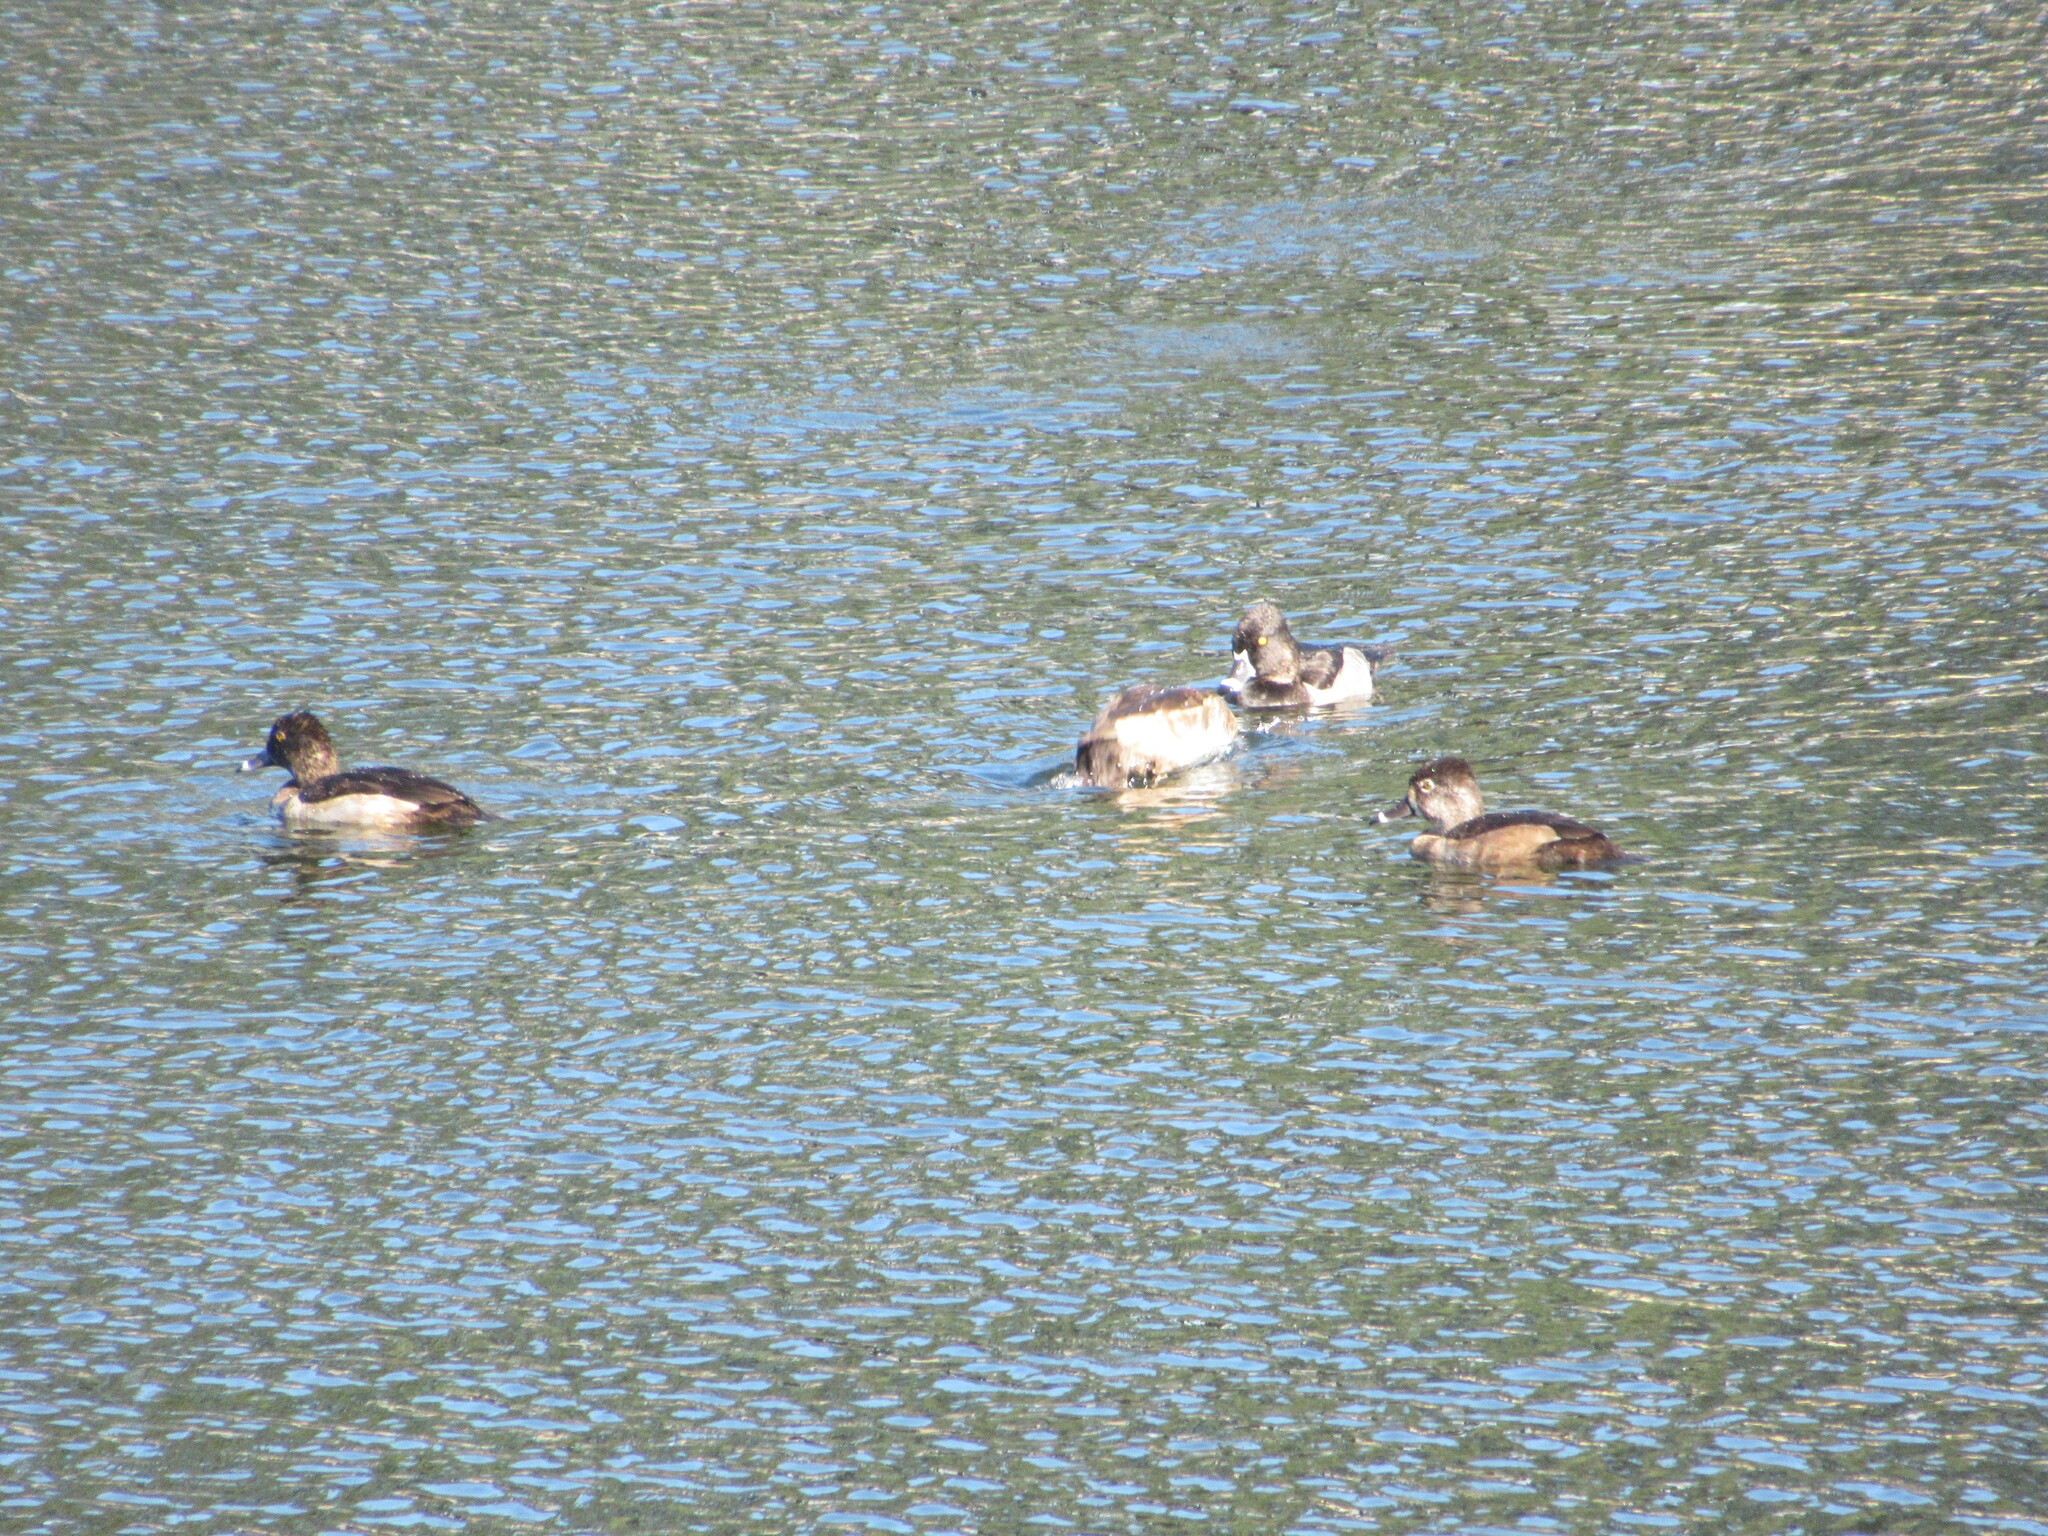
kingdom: Animalia
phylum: Chordata
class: Aves
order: Anseriformes
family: Anatidae
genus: Aythya
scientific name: Aythya collaris
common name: Ring-necked duck
